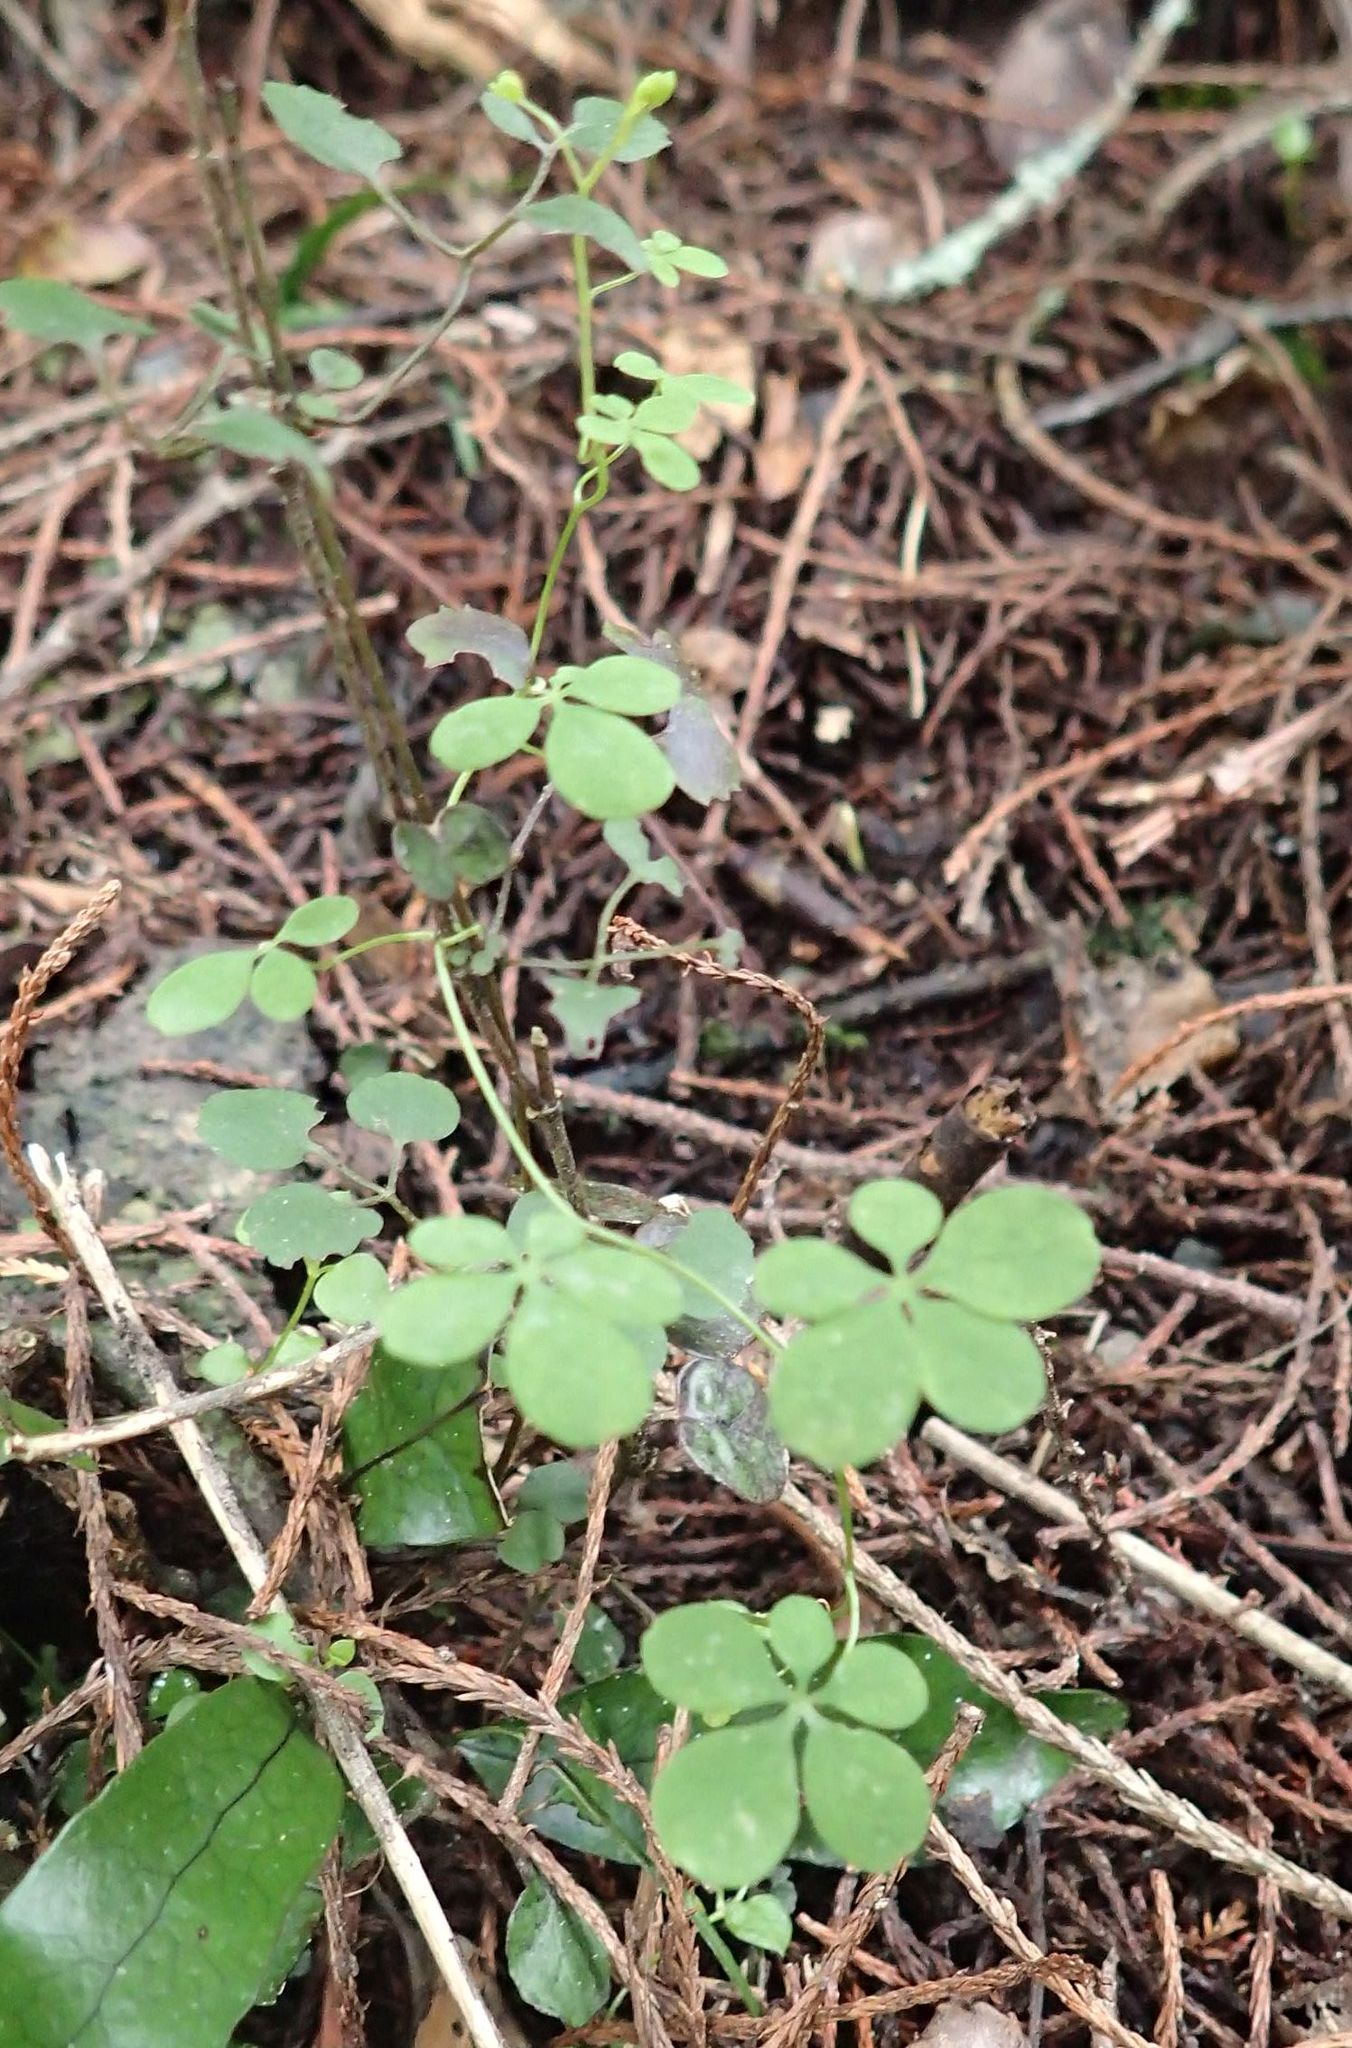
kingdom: Plantae
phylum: Tracheophyta
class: Magnoliopsida
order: Brassicales
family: Tropaeolaceae
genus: Tropaeolum
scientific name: Tropaeolum speciosum
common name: Flame nasturtium
